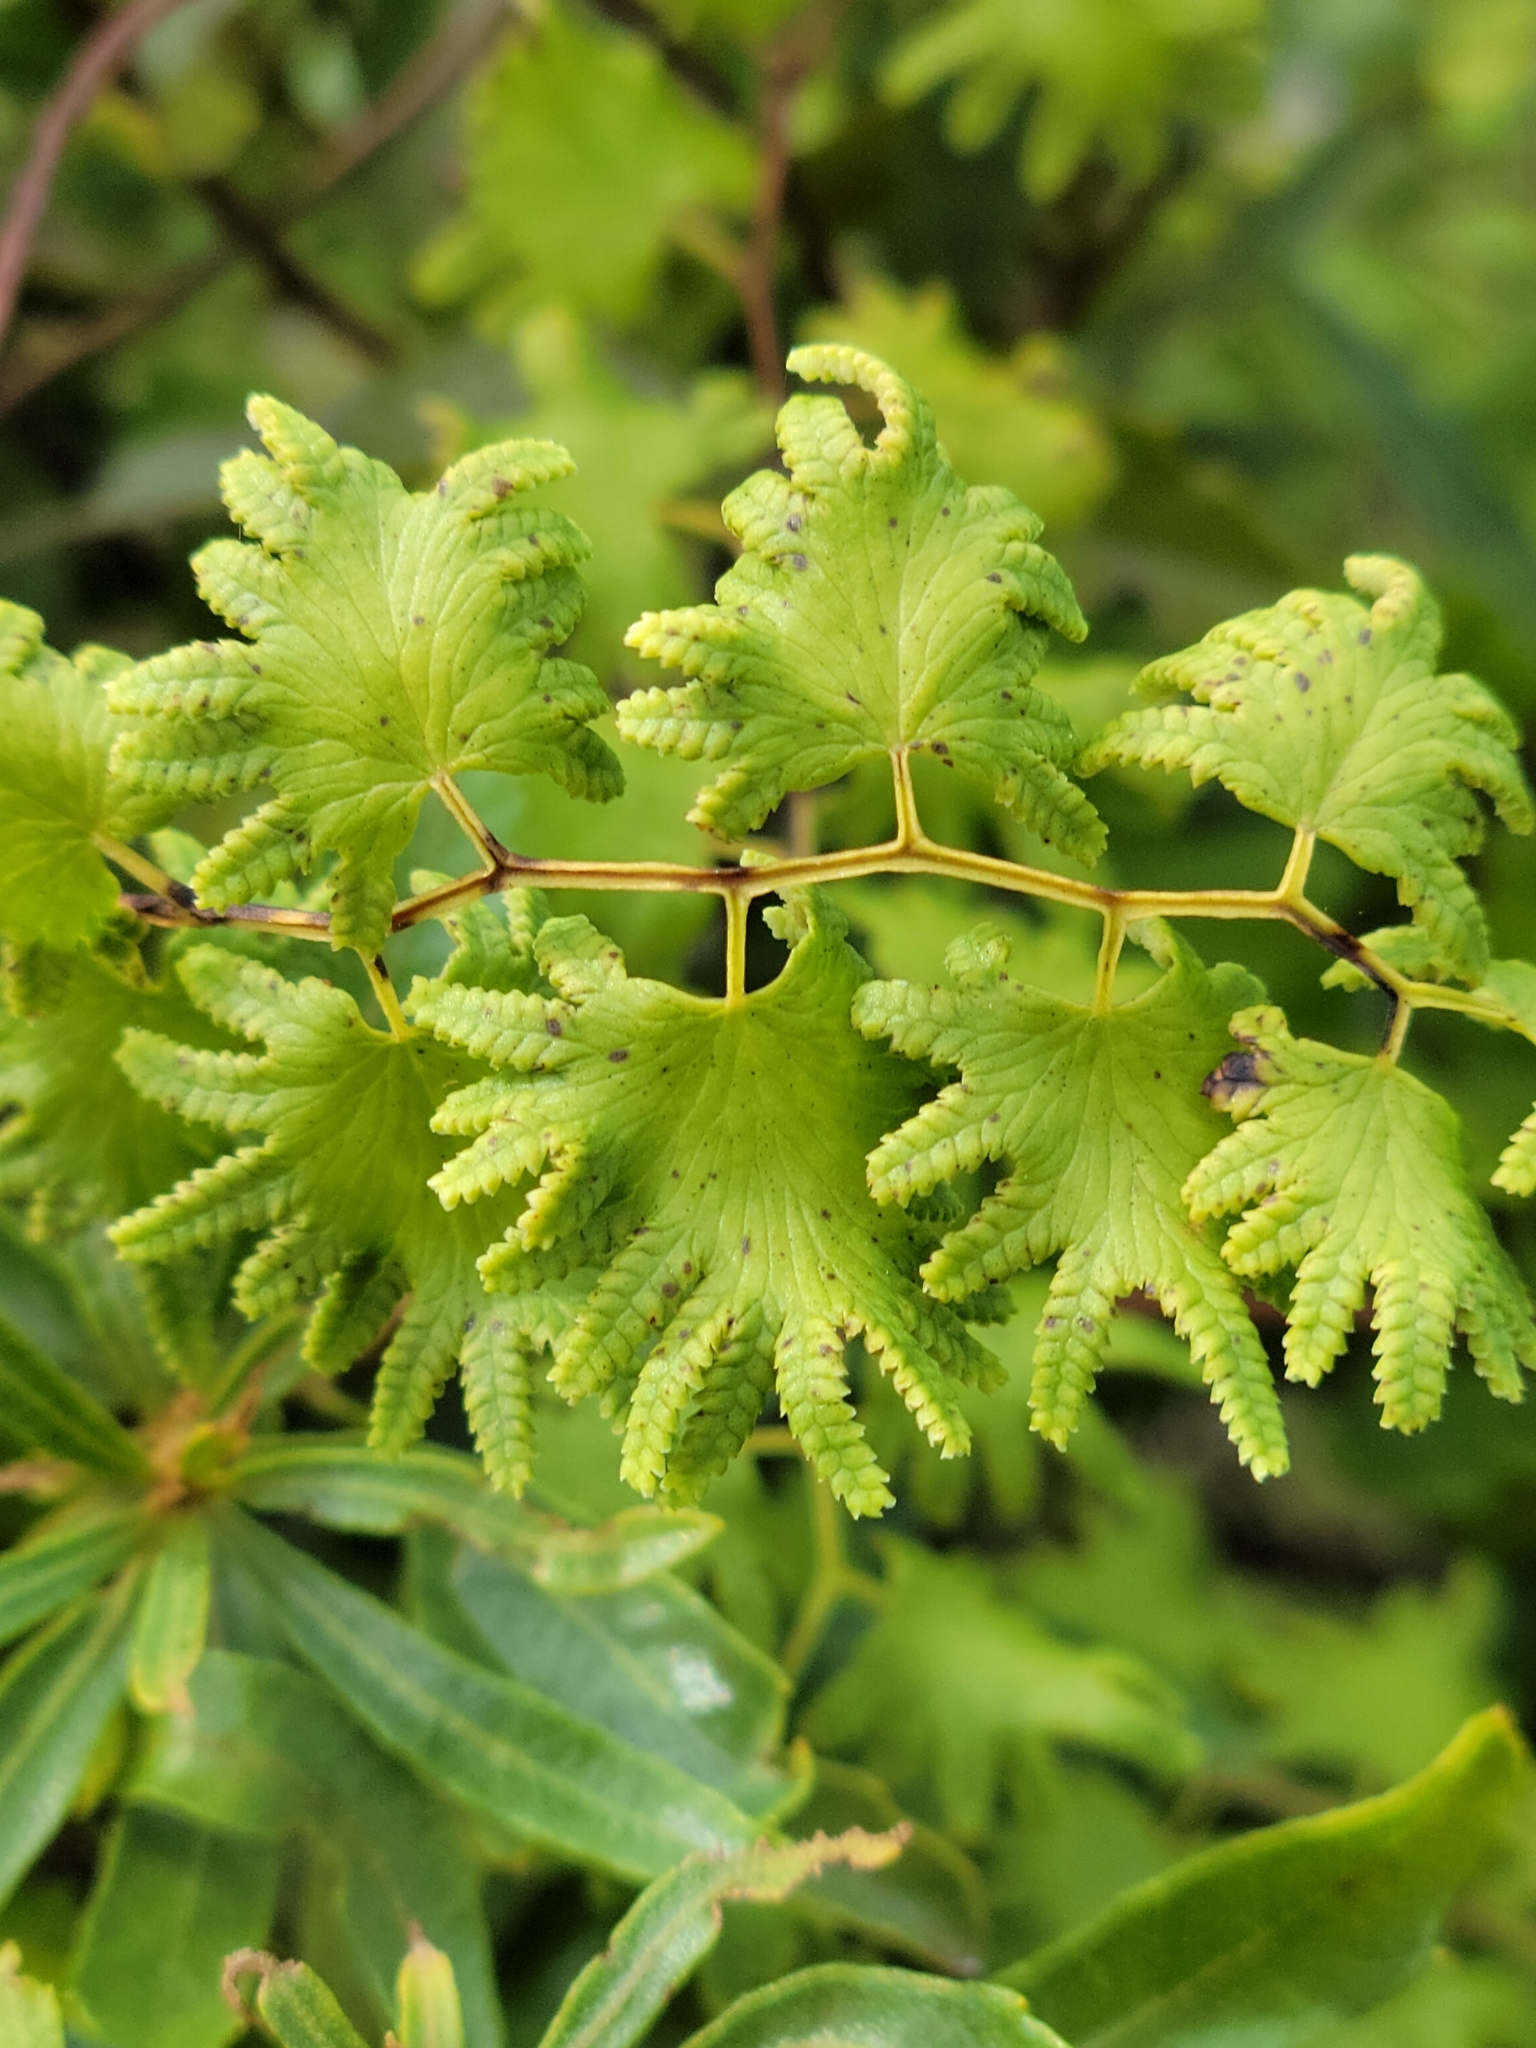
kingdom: Plantae
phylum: Tracheophyta
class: Polypodiopsida
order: Schizaeales
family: Lygodiaceae
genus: Lygodium
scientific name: Lygodium microphyllum
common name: Small-leaf climbing fern
